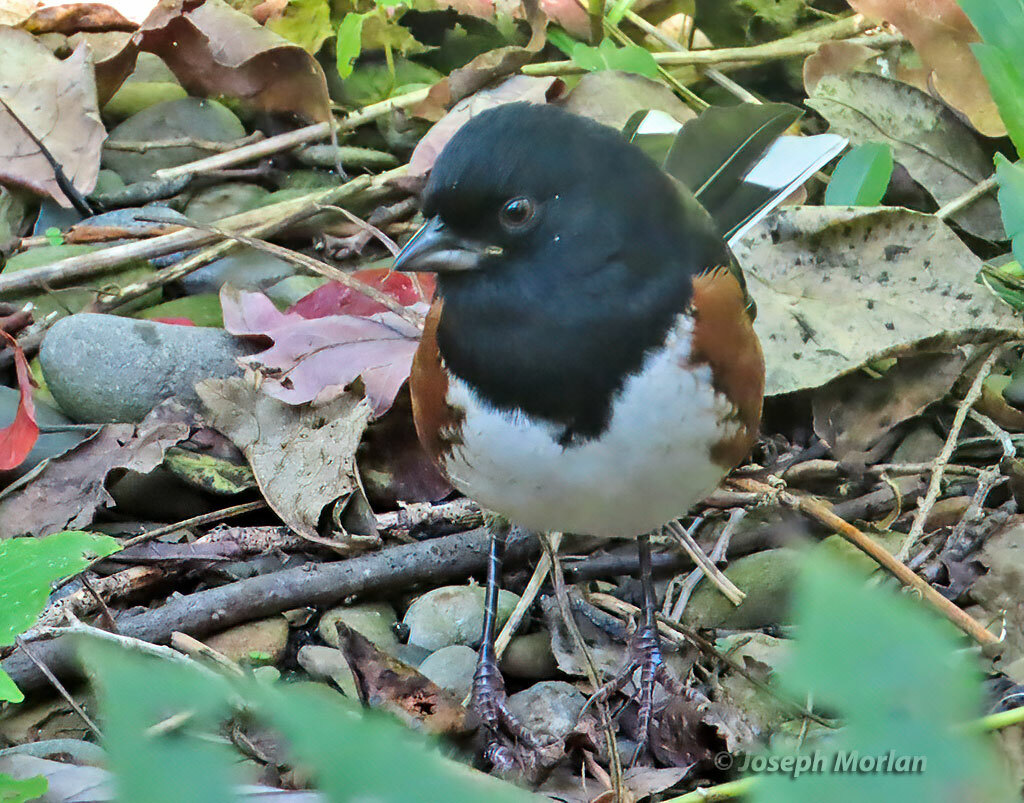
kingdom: Animalia
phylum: Chordata
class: Aves
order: Passeriformes
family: Passerellidae
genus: Pipilo
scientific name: Pipilo erythrophthalmus
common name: Eastern towhee
